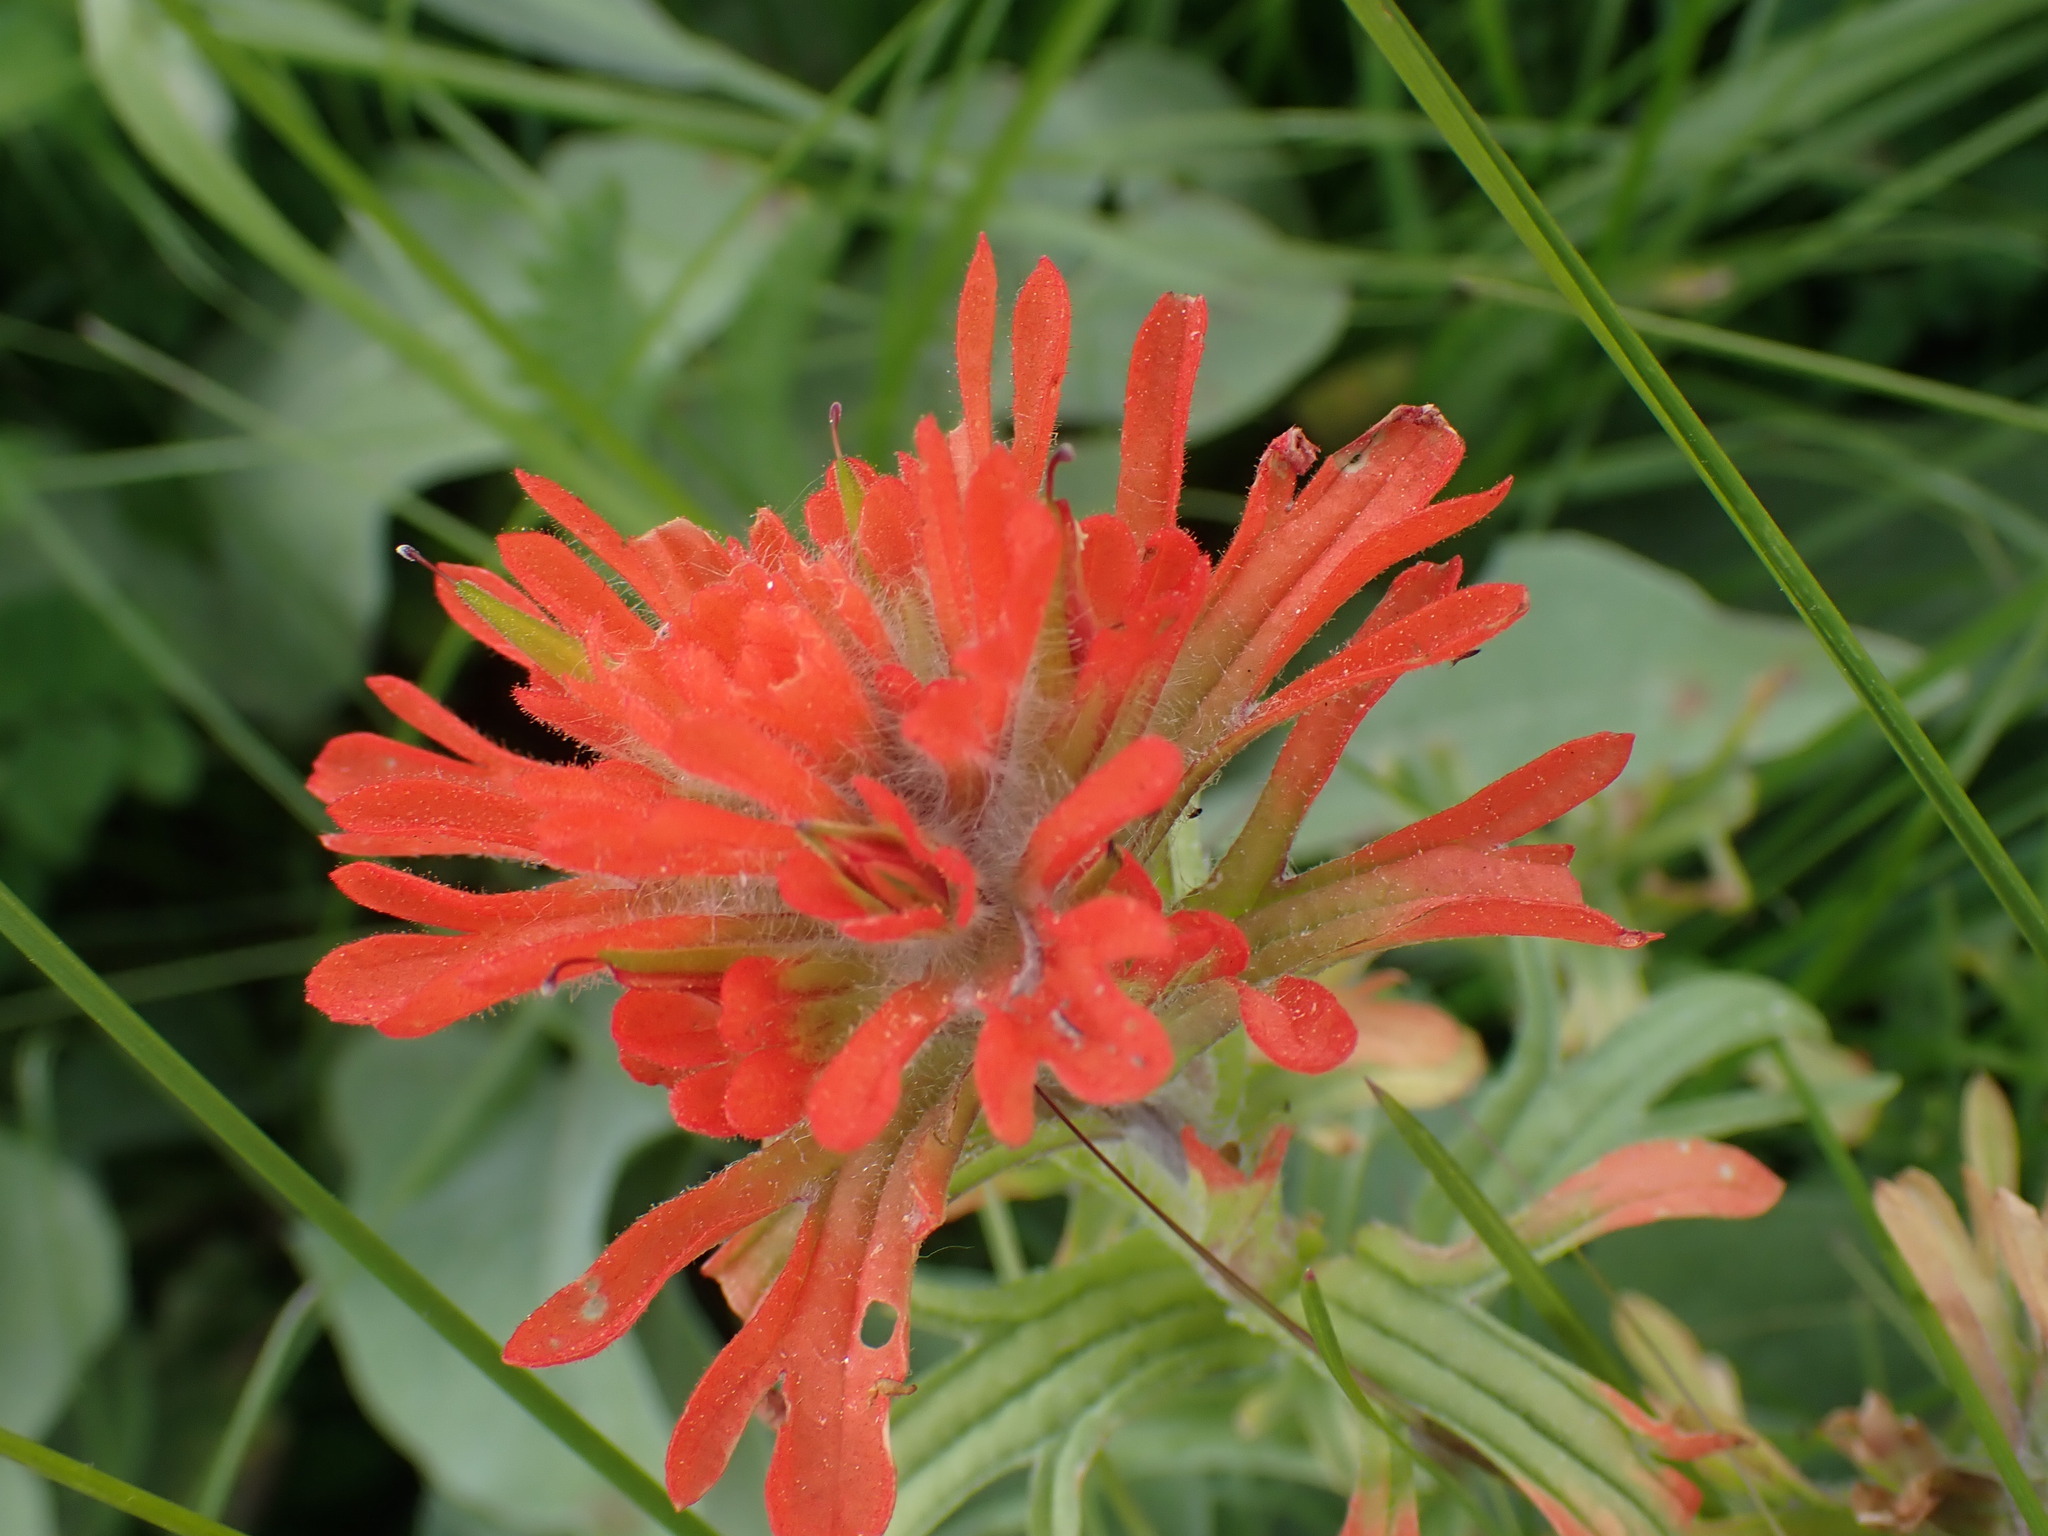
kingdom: Plantae
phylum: Tracheophyta
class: Magnoliopsida
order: Lamiales
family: Orobanchaceae
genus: Castilleja
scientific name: Castilleja hispida
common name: Bristly paintbrush
